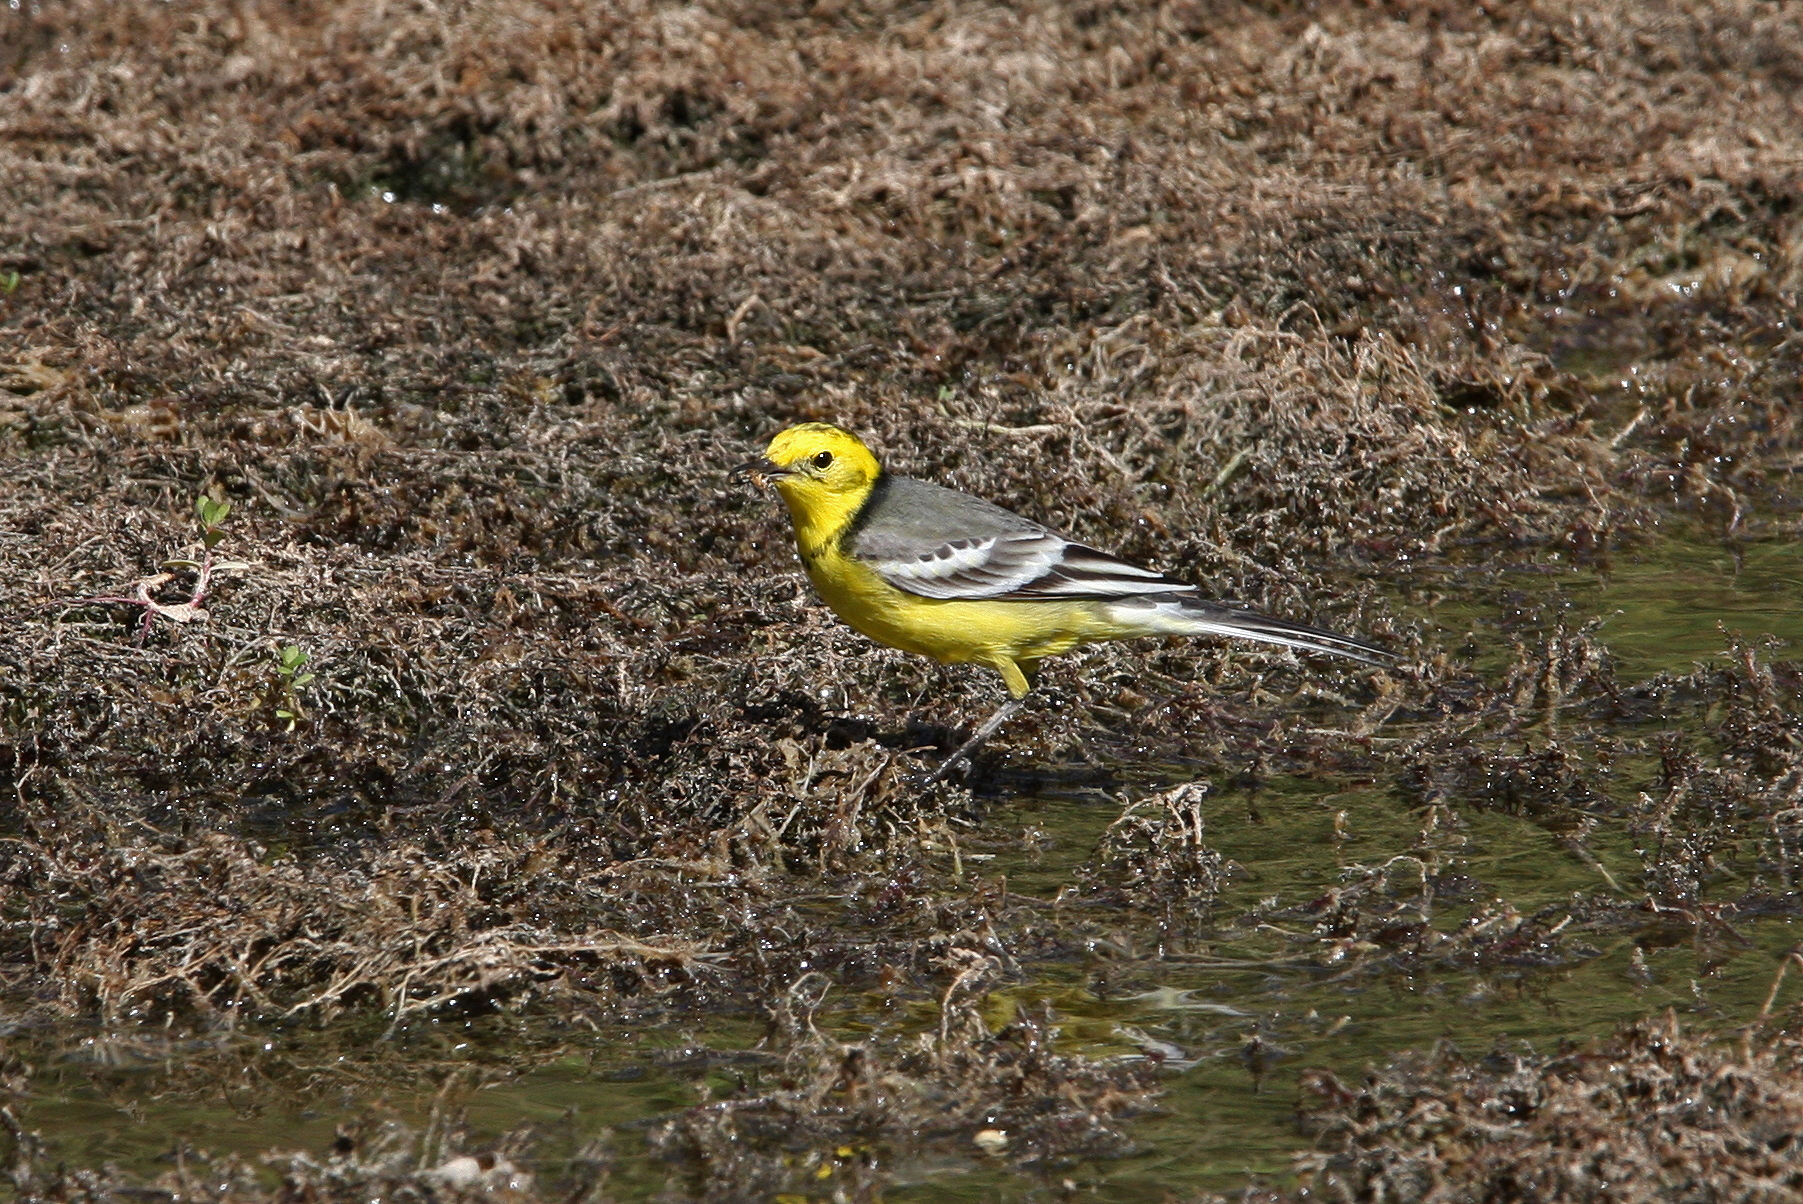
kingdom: Animalia
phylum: Chordata
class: Aves
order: Passeriformes
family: Motacillidae
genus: Motacilla
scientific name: Motacilla citreola
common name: Citrine wagtail
